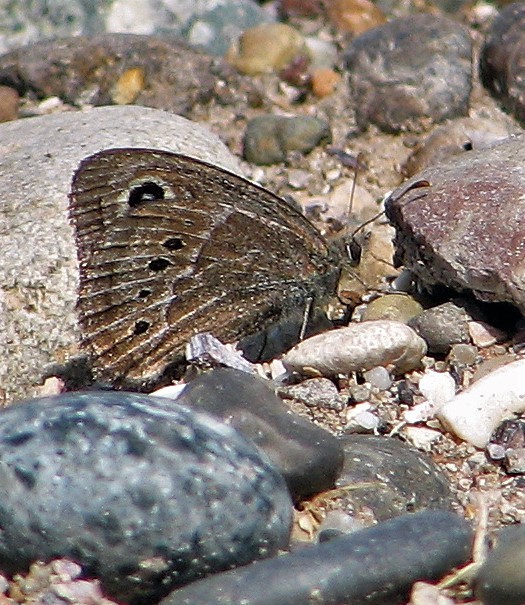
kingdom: Animalia
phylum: Arthropoda
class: Insecta
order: Lepidoptera
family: Nymphalidae
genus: Pampasatyrus
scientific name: Pampasatyrus gyrtone
